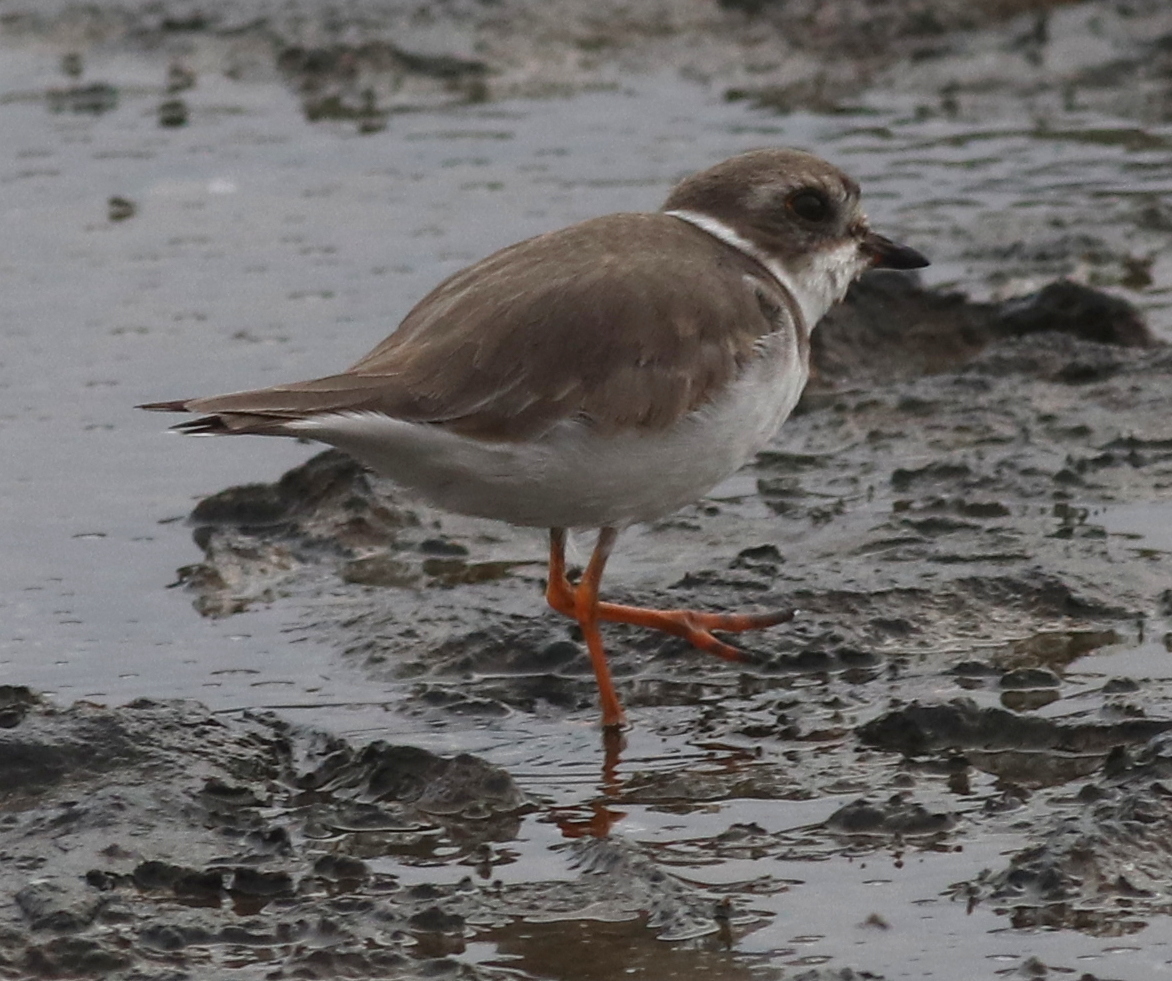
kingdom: Animalia
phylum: Chordata
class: Aves
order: Charadriiformes
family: Charadriidae
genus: Charadrius
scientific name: Charadrius semipalmatus
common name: Semipalmated plover
